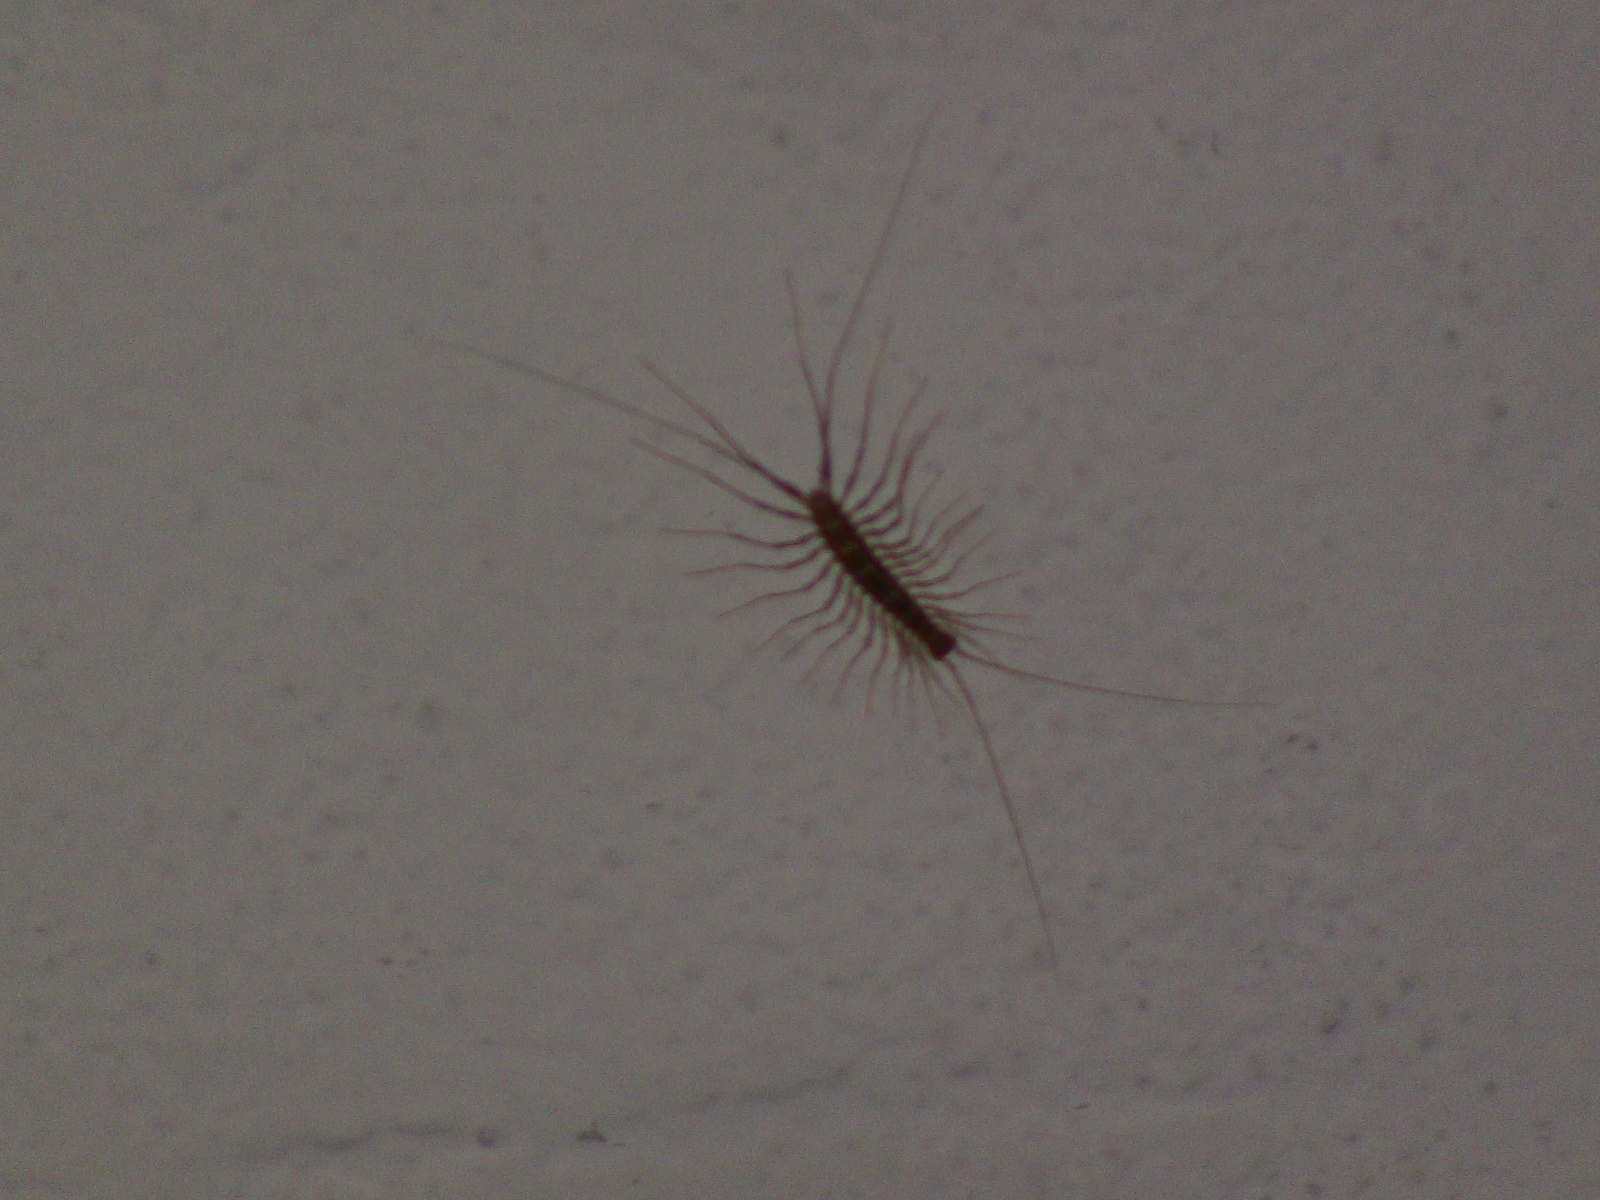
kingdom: Animalia
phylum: Arthropoda
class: Chilopoda
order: Scutigeromorpha
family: Scutigeridae
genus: Scutigera
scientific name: Scutigera coleoptrata
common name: House centipede
